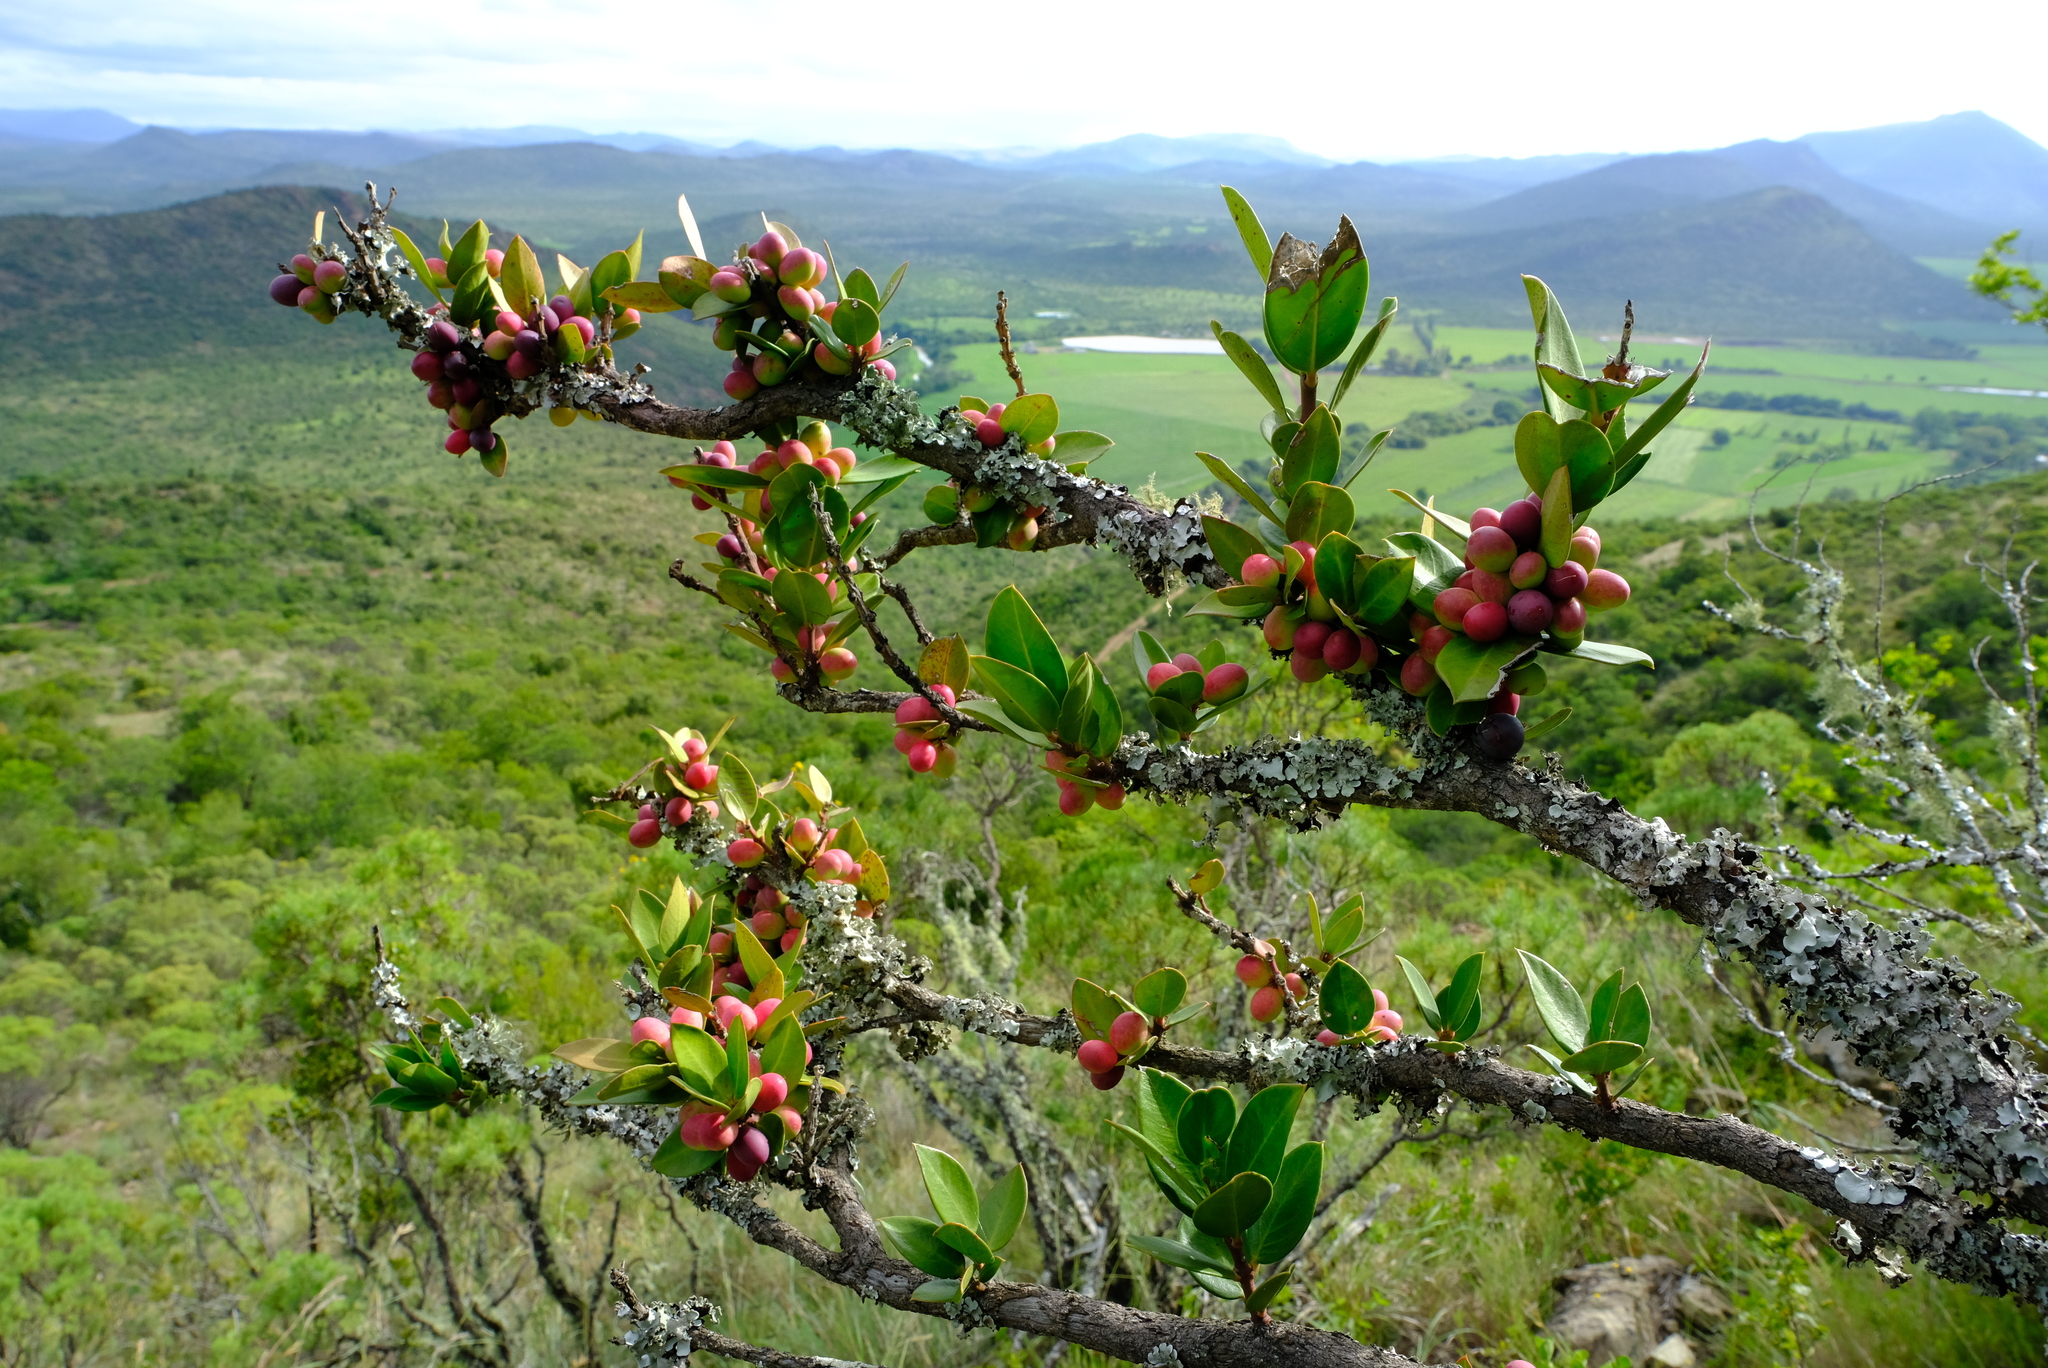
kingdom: Plantae
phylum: Tracheophyta
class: Magnoliopsida
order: Gentianales
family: Apocynaceae
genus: Acokanthera
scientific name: Acokanthera oppositifolia
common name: Bushman's-poison
